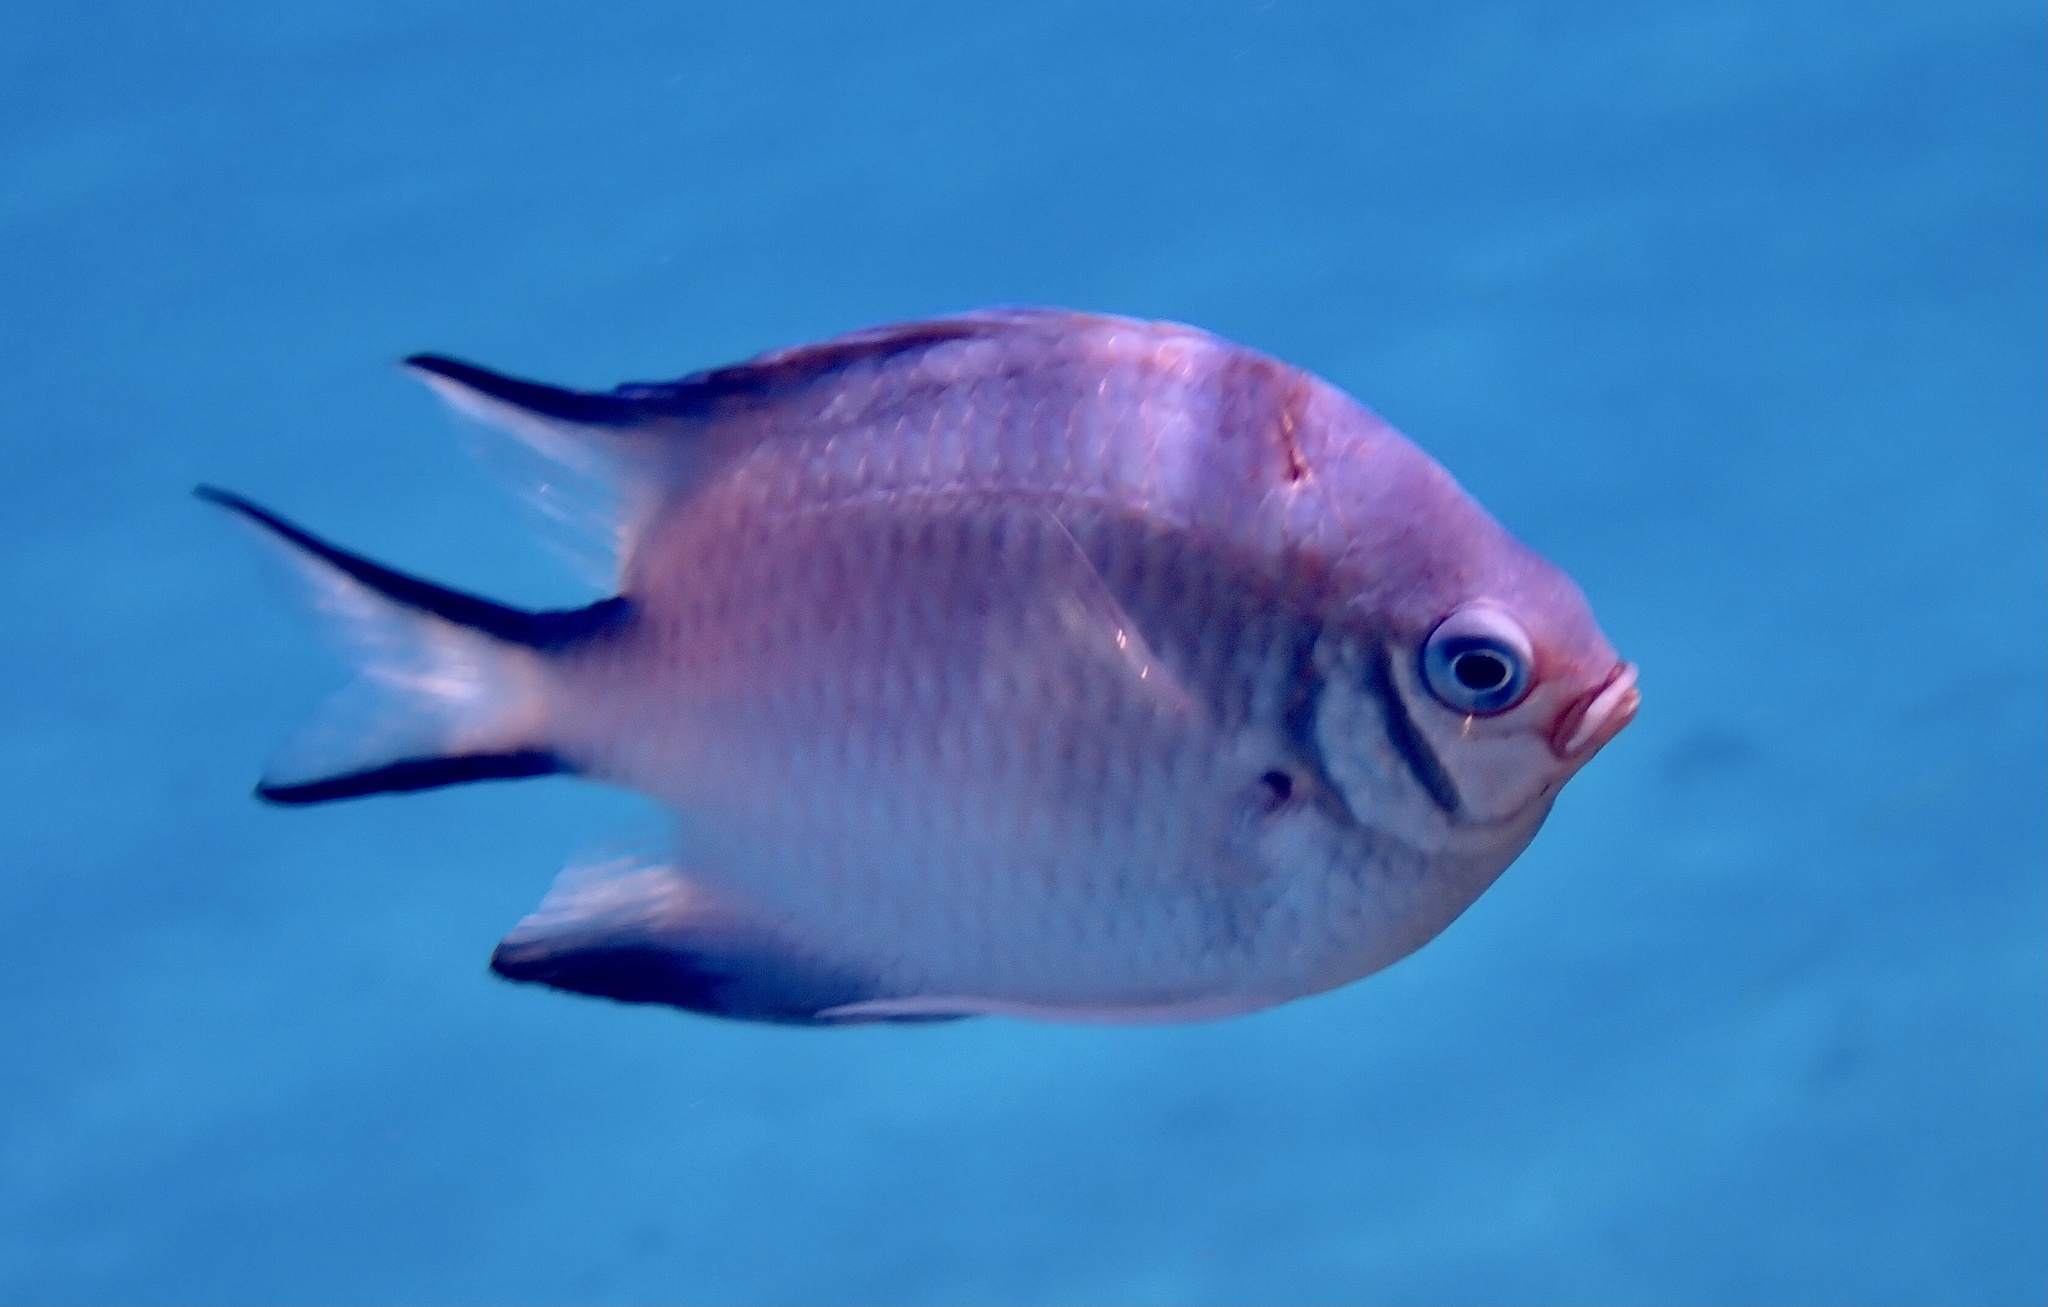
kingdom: Animalia
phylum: Chordata
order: Perciformes
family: Pomacentridae
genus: Amblyglyphidodon
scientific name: Amblyglyphidodon indicus
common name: Maldives damselfish
